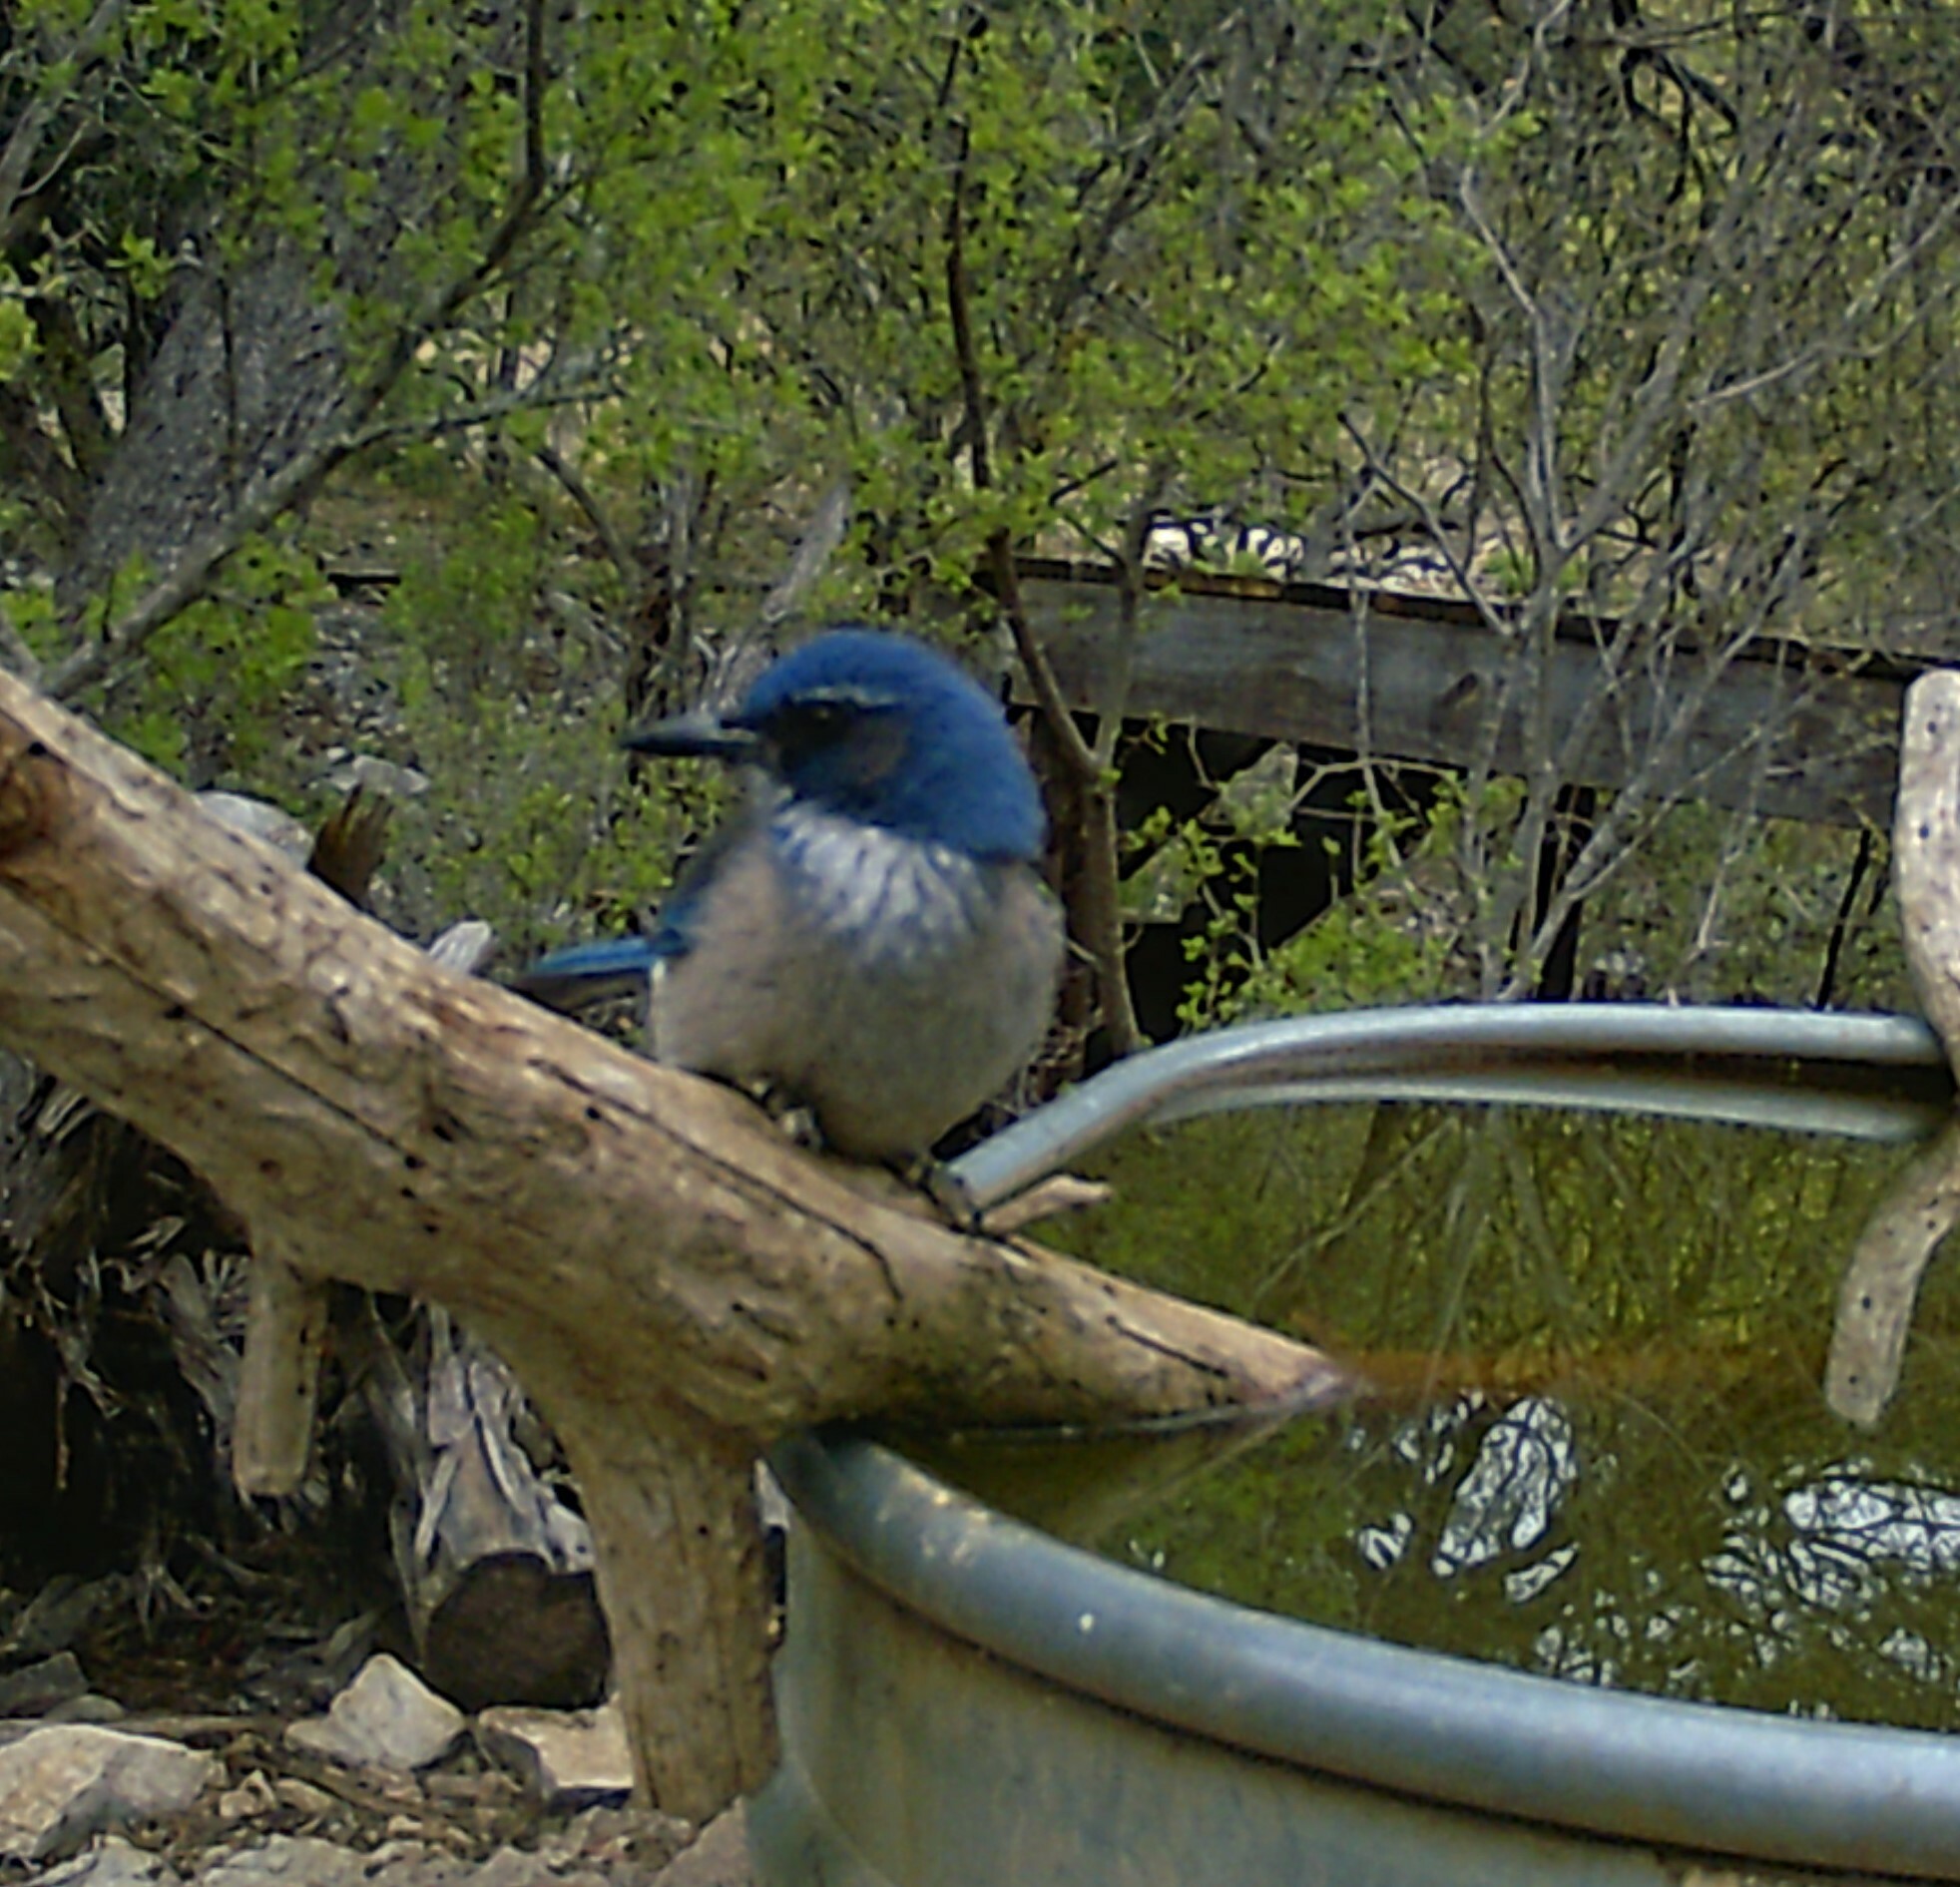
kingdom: Animalia
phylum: Chordata
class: Aves
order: Passeriformes
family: Corvidae
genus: Aphelocoma
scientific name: Aphelocoma woodhouseii
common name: Woodhouse's scrub-jay
